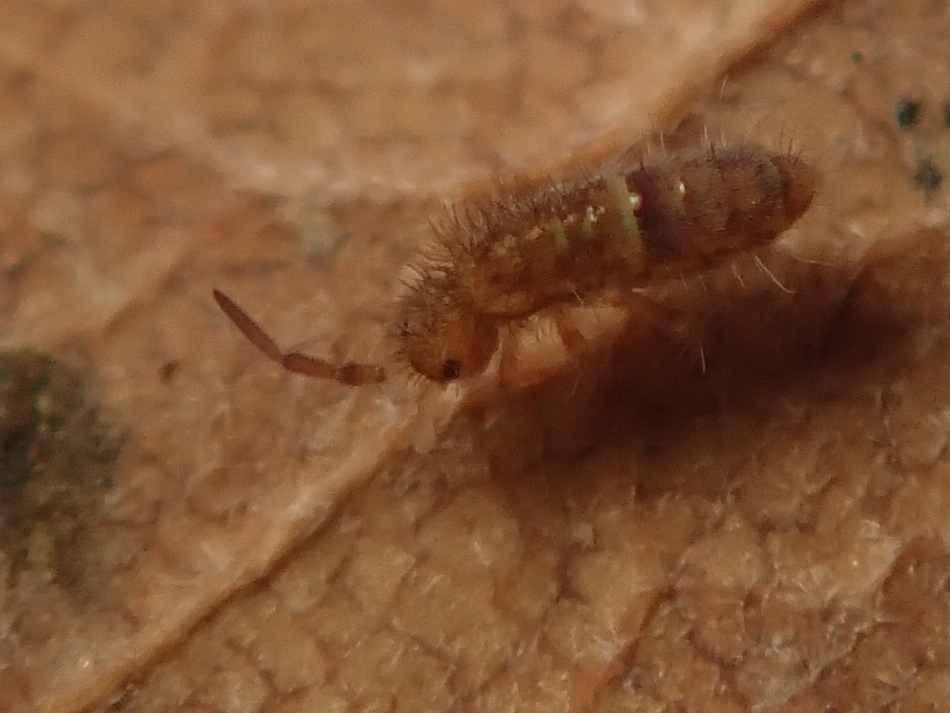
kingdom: Animalia
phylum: Arthropoda
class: Collembola
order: Entomobryomorpha
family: Orchesellidae
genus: Orchesella
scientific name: Orchesella cincta
